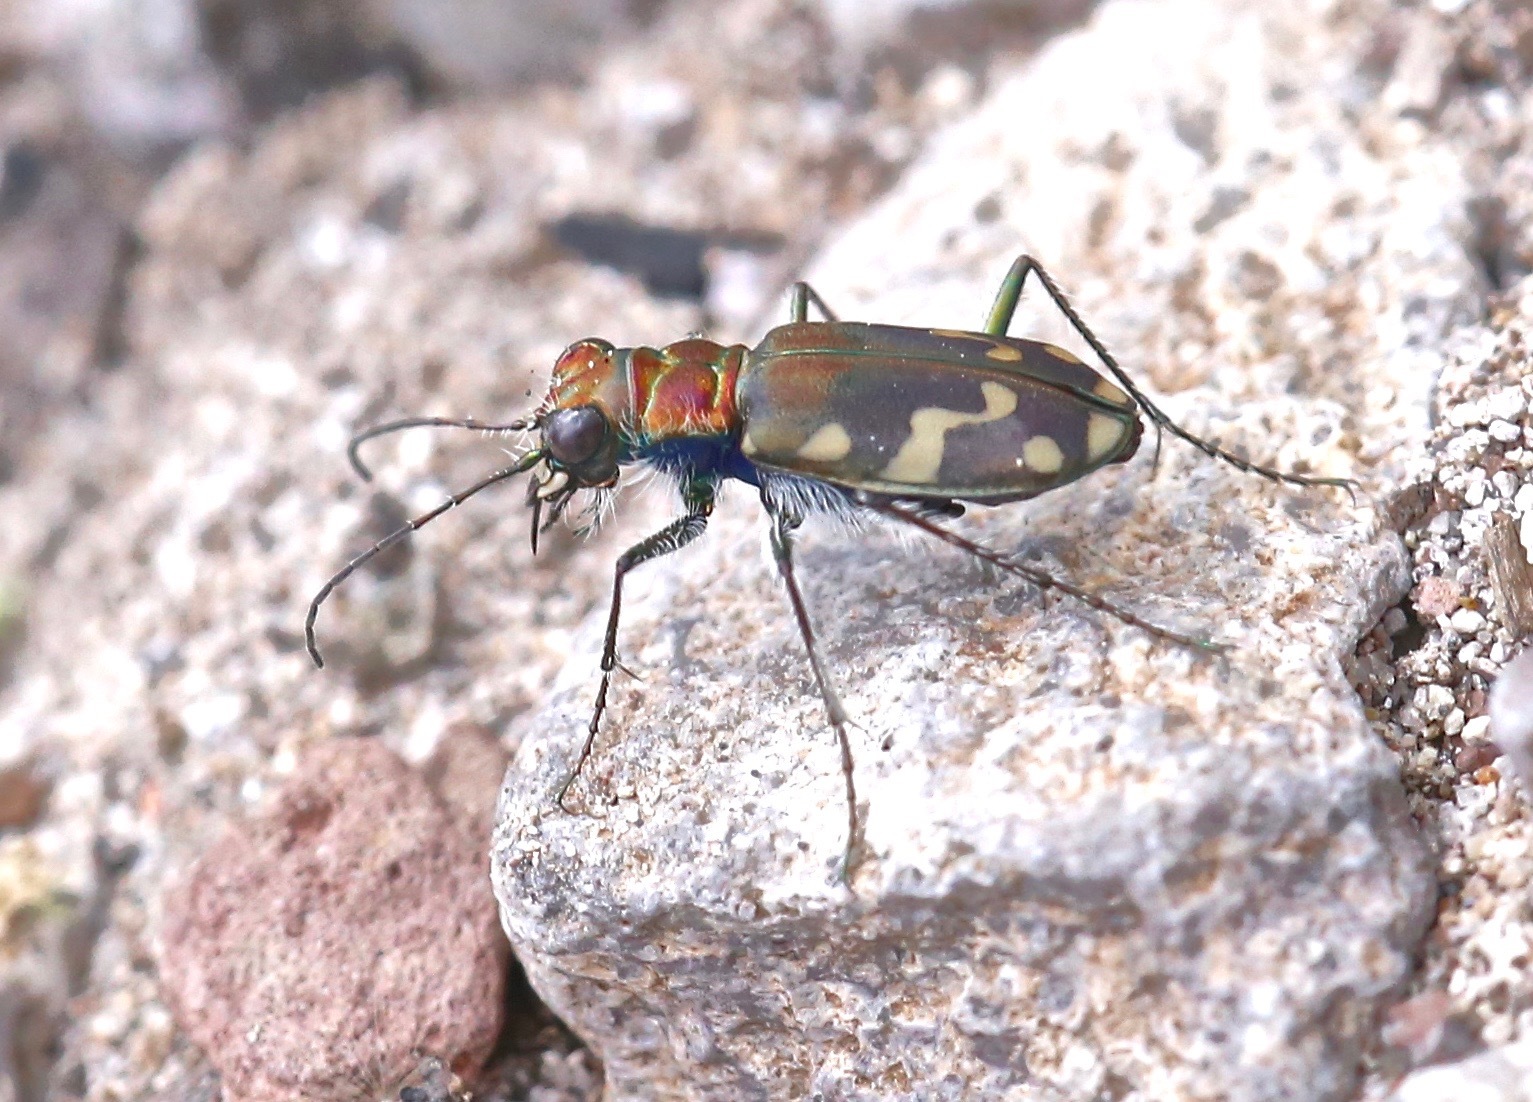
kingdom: Animalia
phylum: Arthropoda
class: Insecta
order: Coleoptera
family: Carabidae
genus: Cicindela
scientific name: Cicindela oregona
